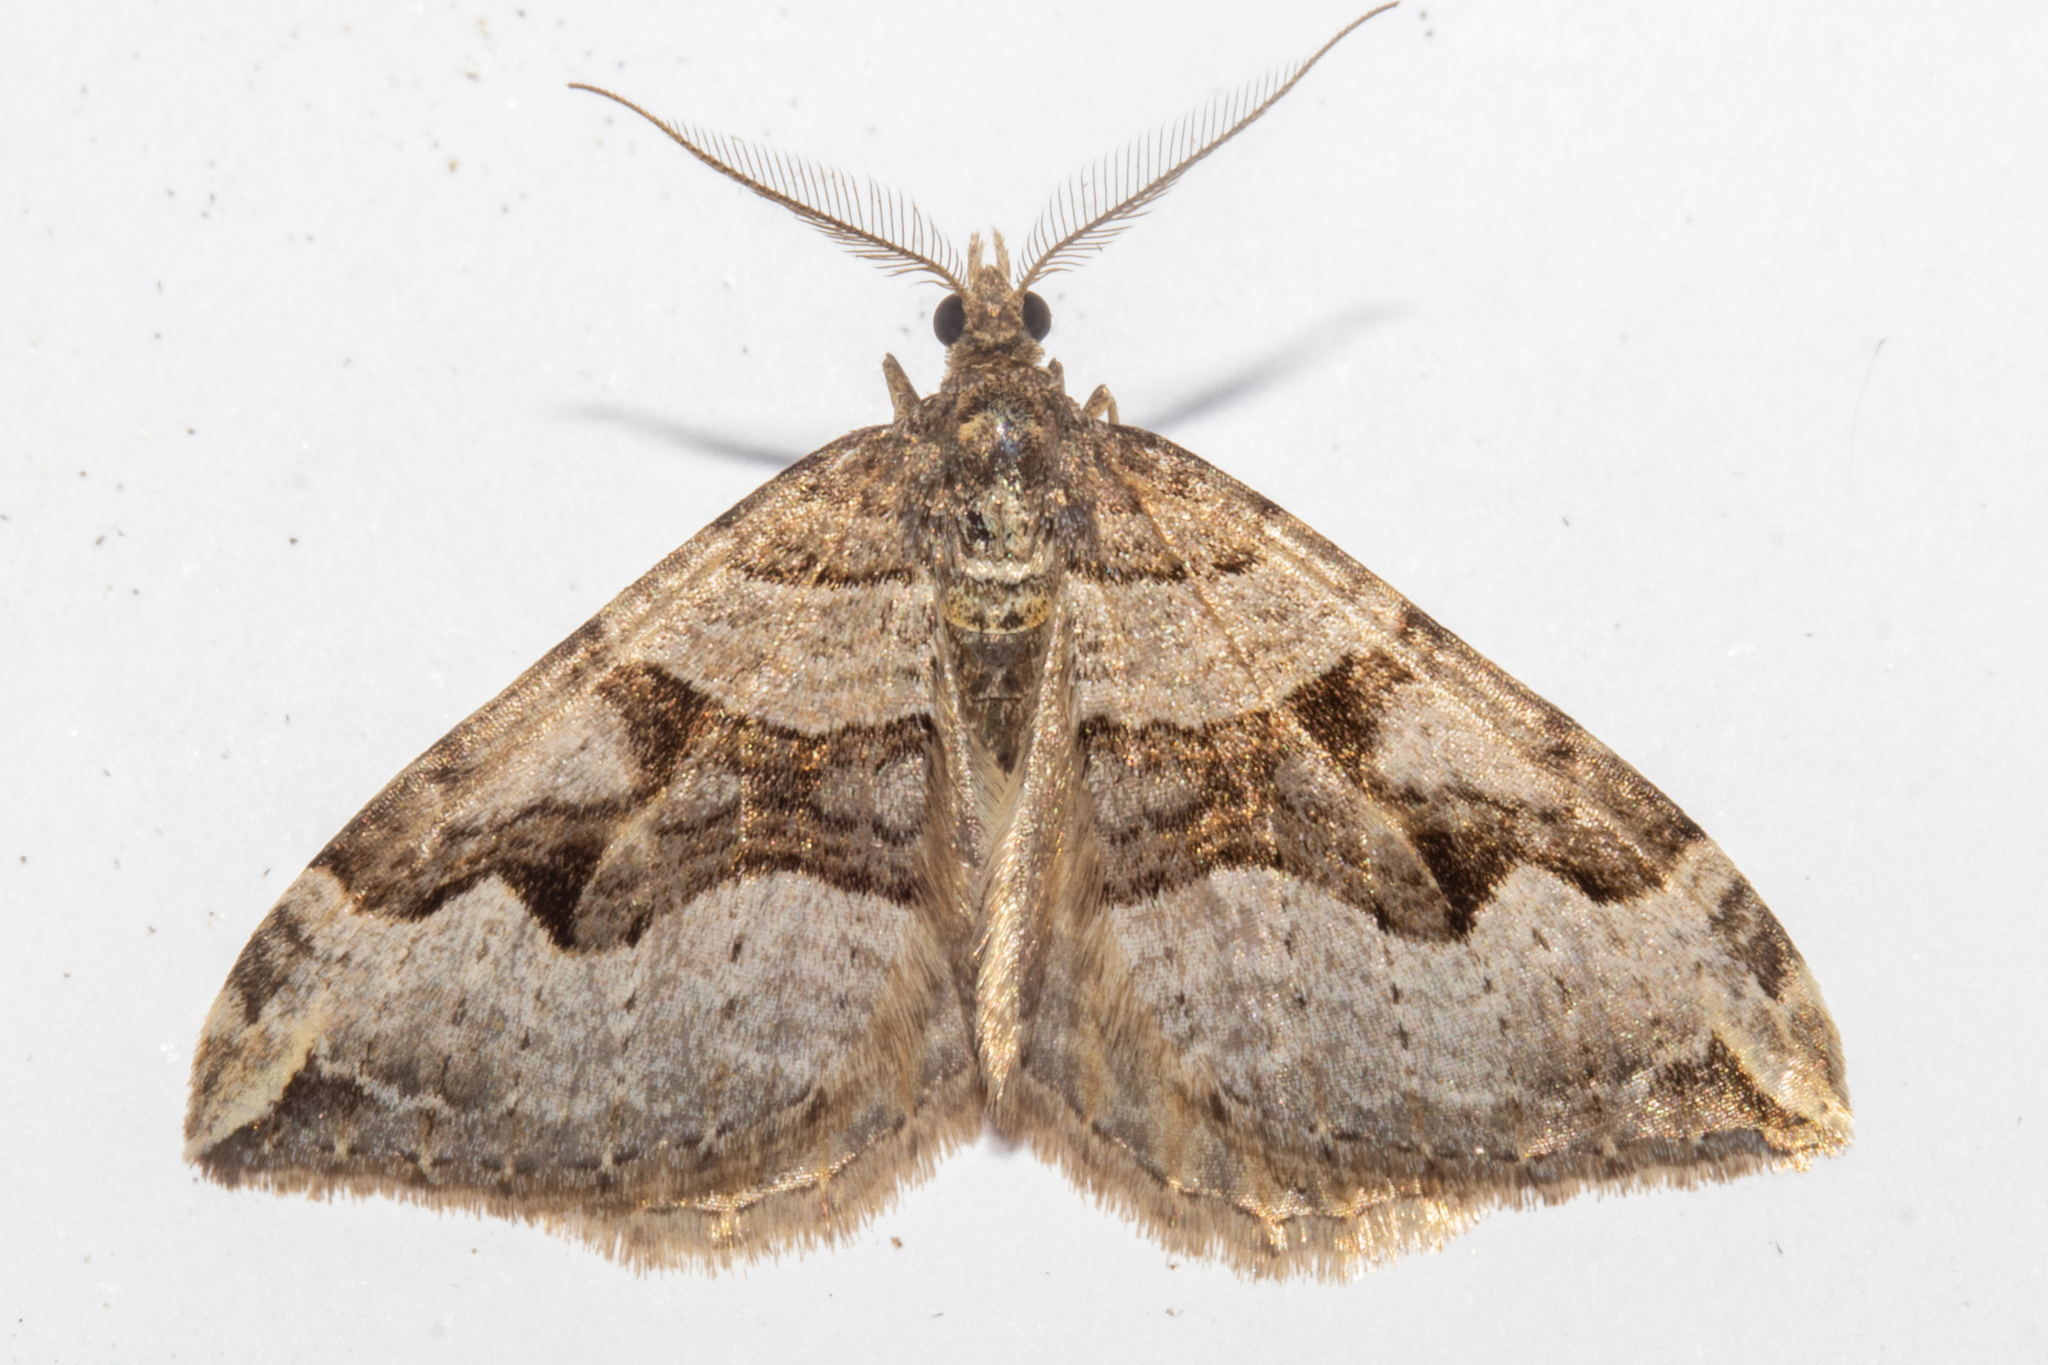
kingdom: Animalia
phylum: Arthropoda
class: Insecta
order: Lepidoptera
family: Geometridae
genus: Xanthorhoe
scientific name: Xanthorhoe semifissata
